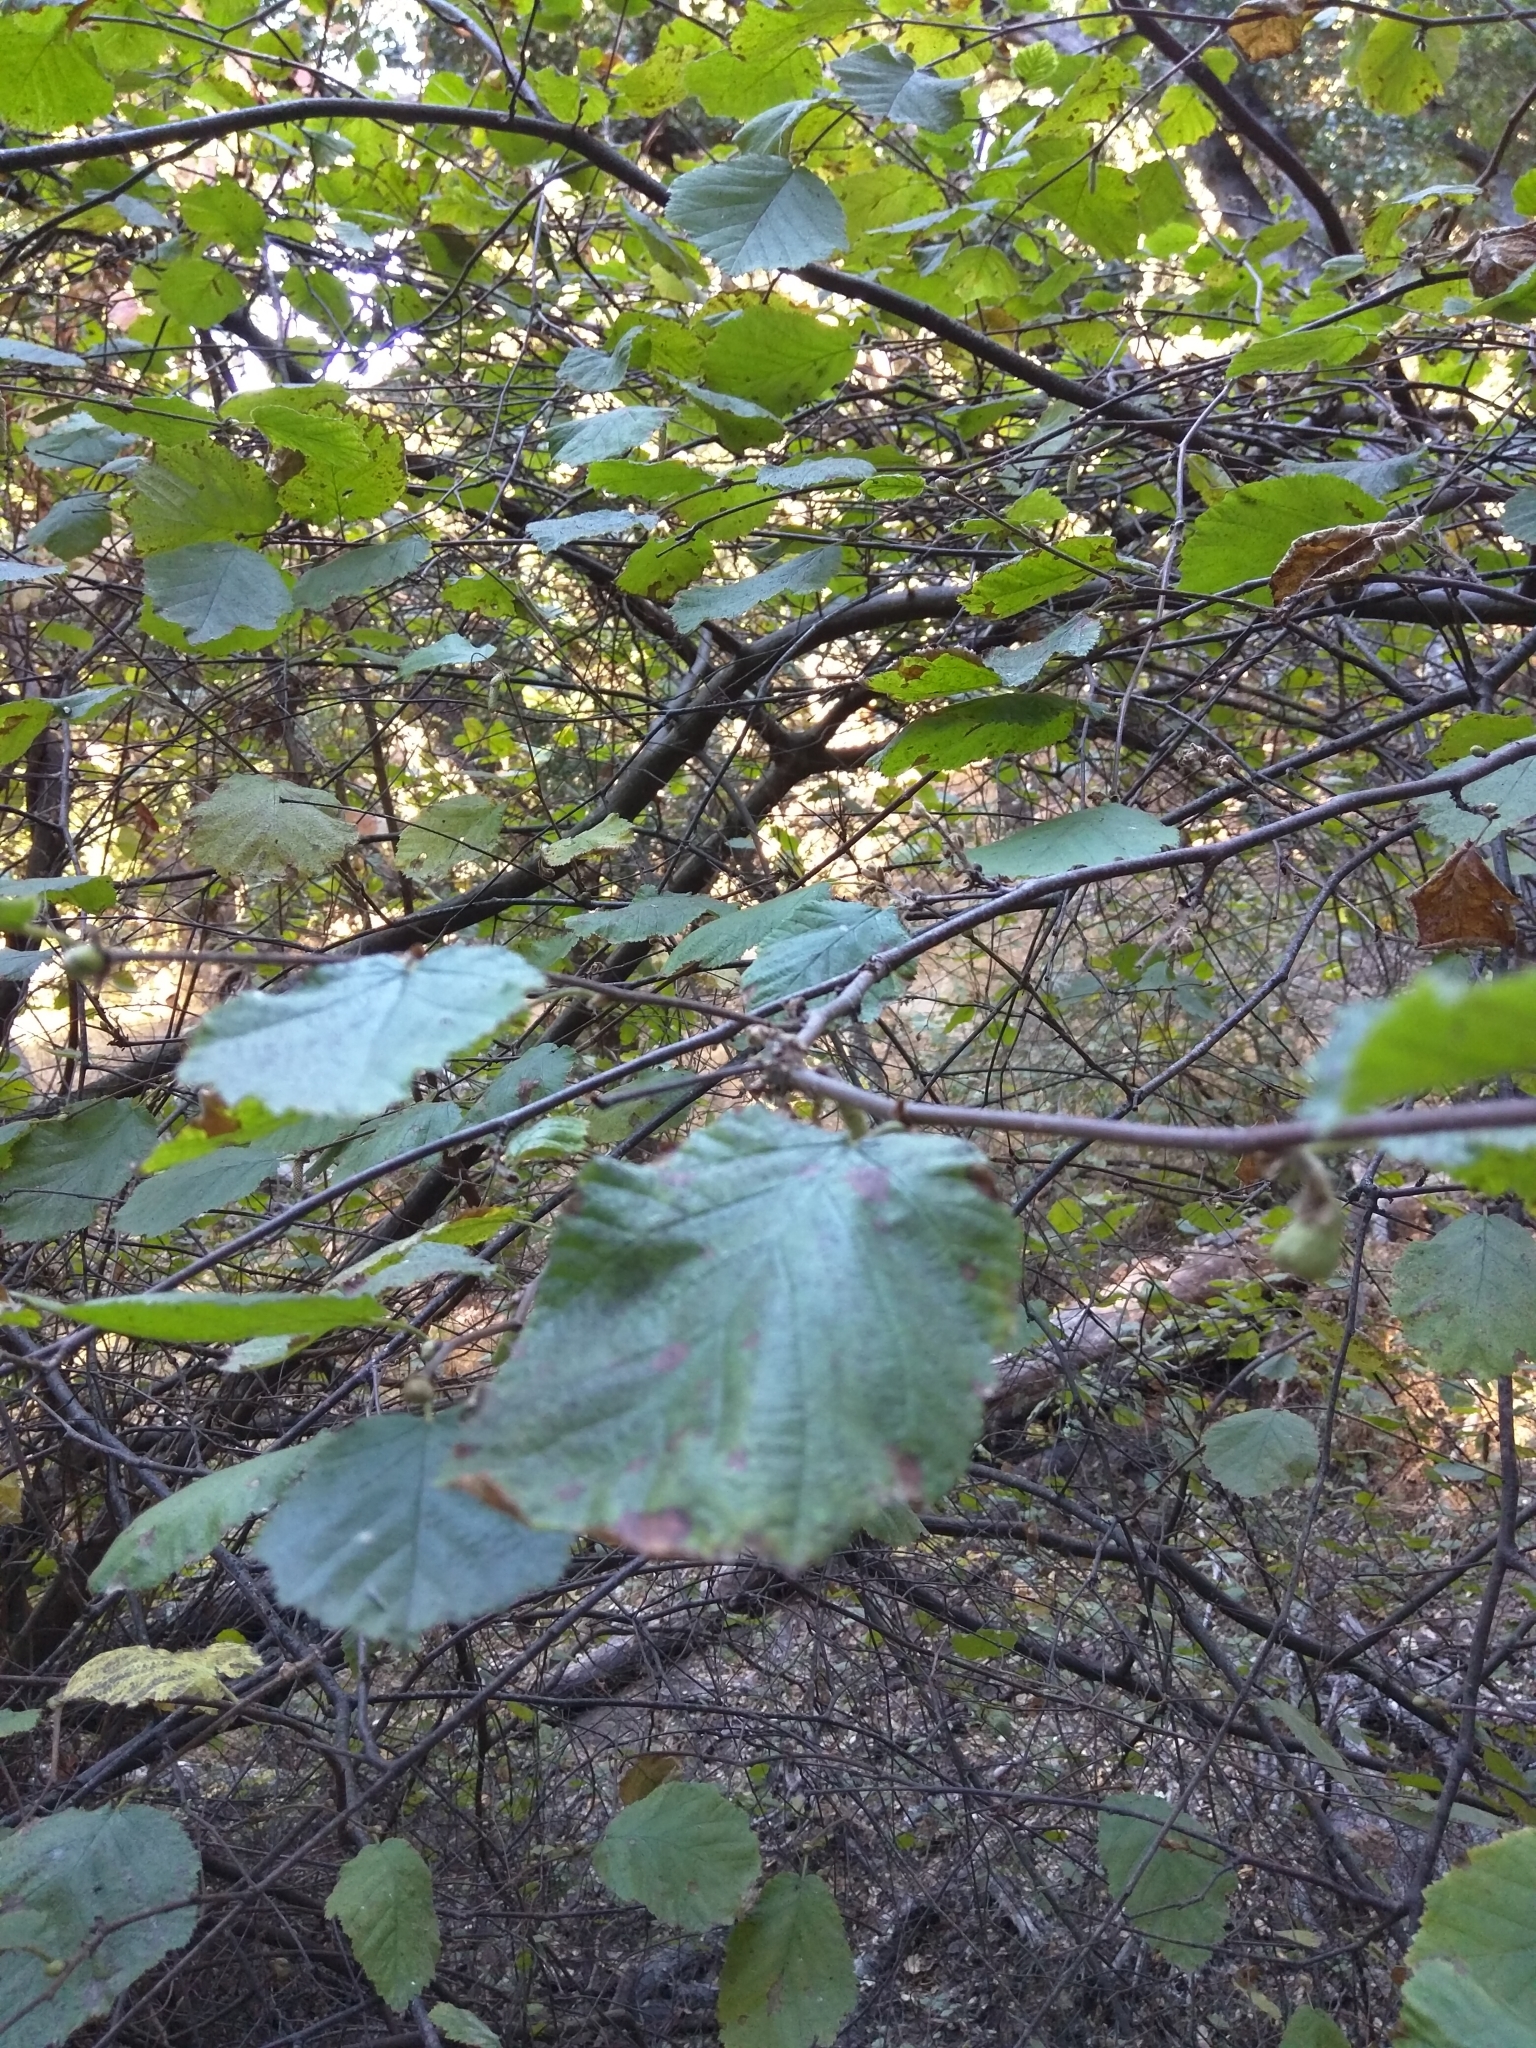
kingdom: Plantae
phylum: Tracheophyta
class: Magnoliopsida
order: Fagales
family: Betulaceae
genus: Corylus
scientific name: Corylus cornuta
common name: Beaked hazel
